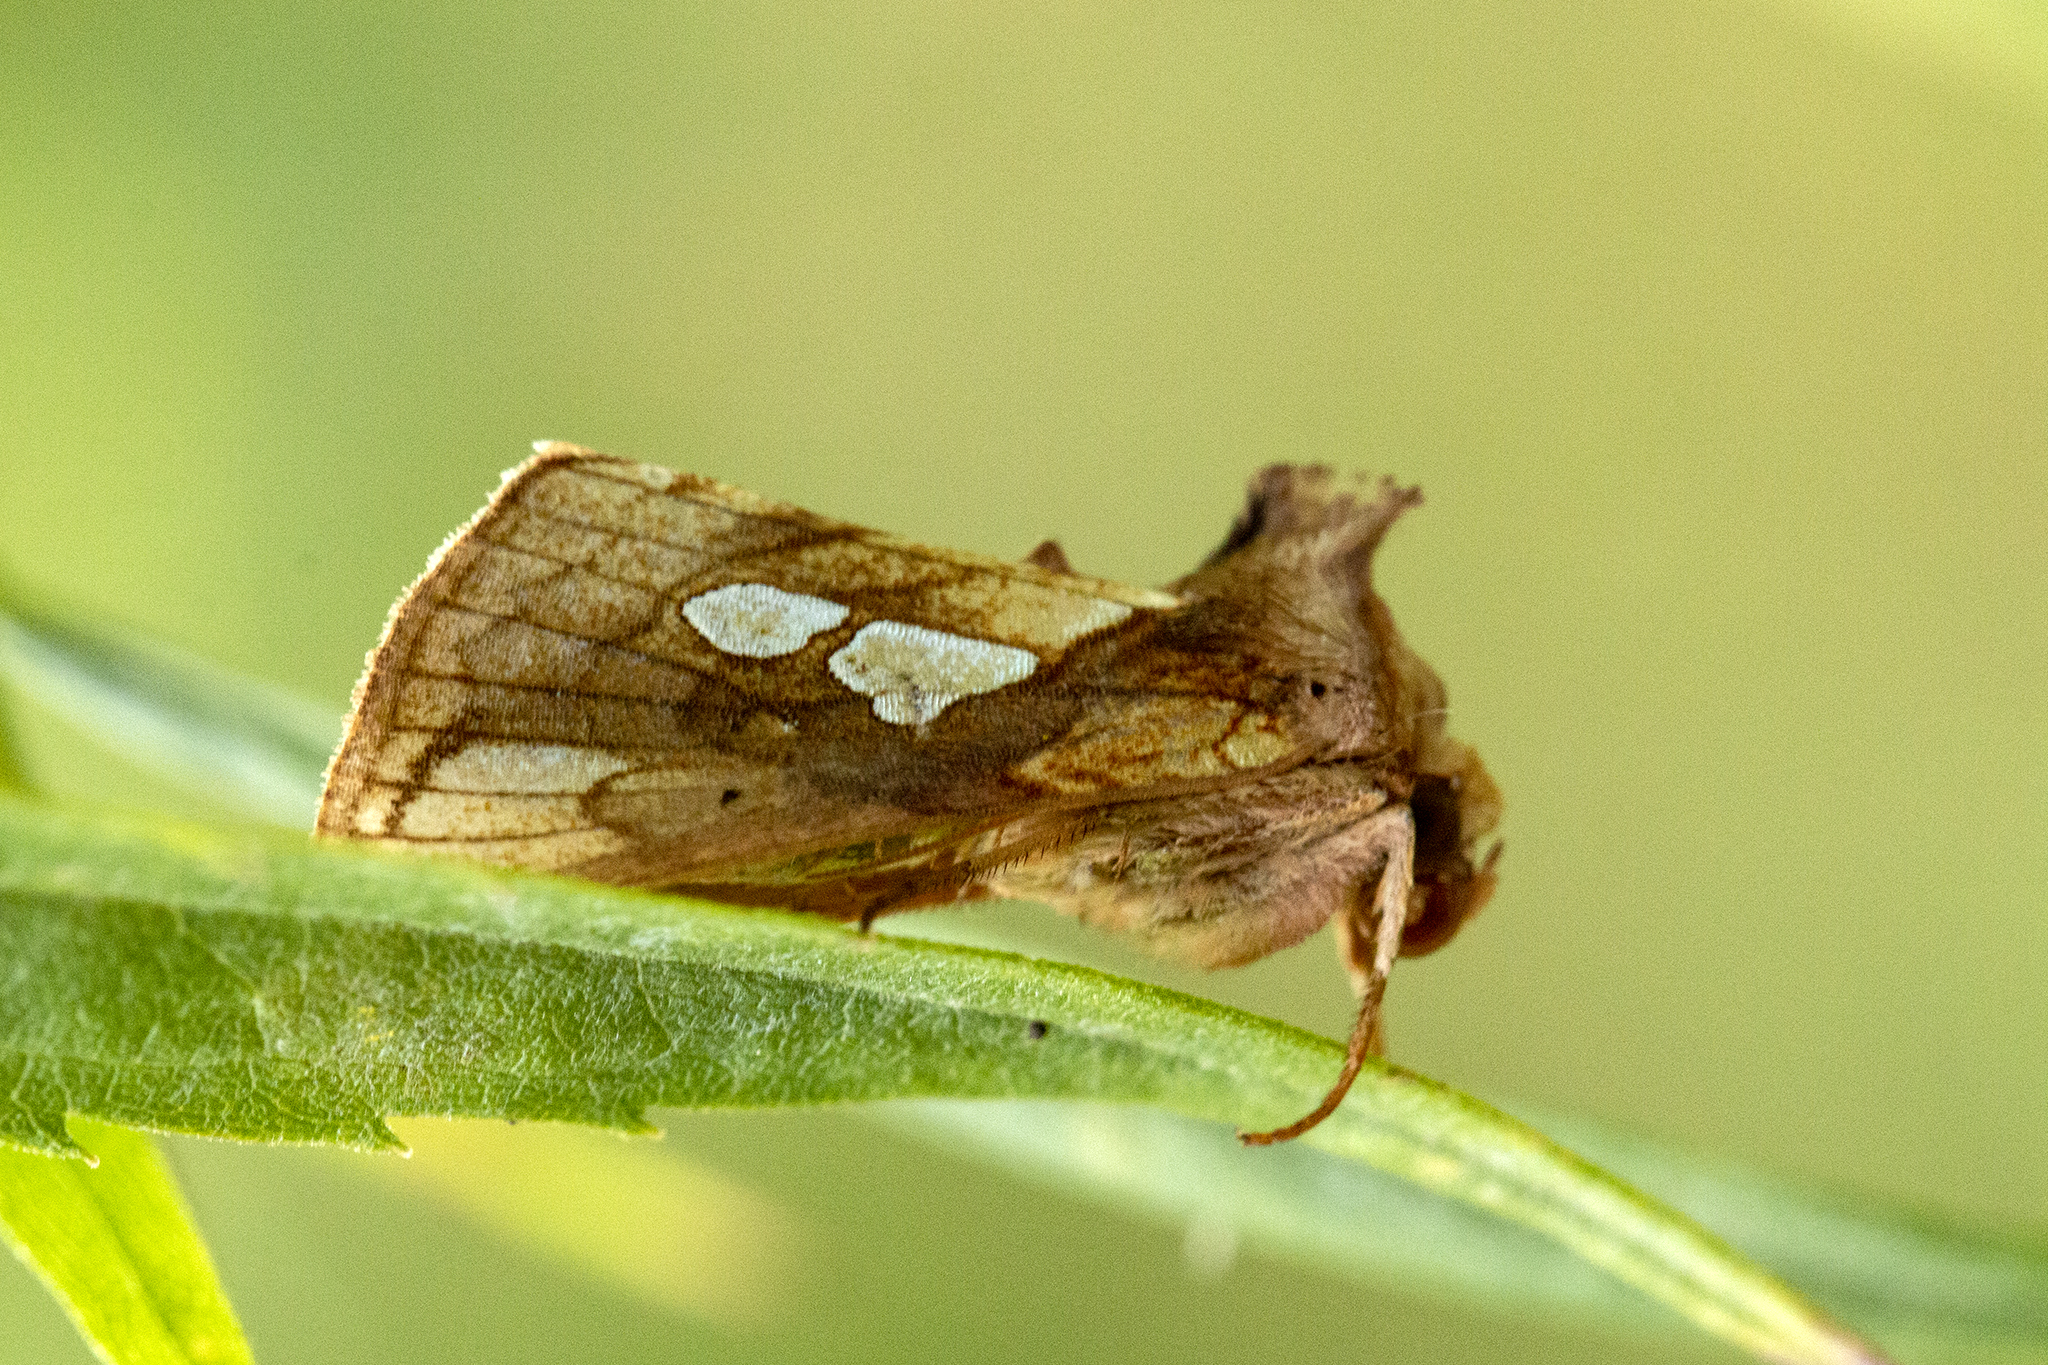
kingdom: Animalia
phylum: Arthropoda
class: Insecta
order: Lepidoptera
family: Noctuidae
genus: Plusia
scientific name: Plusia festucae
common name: Gold spot
